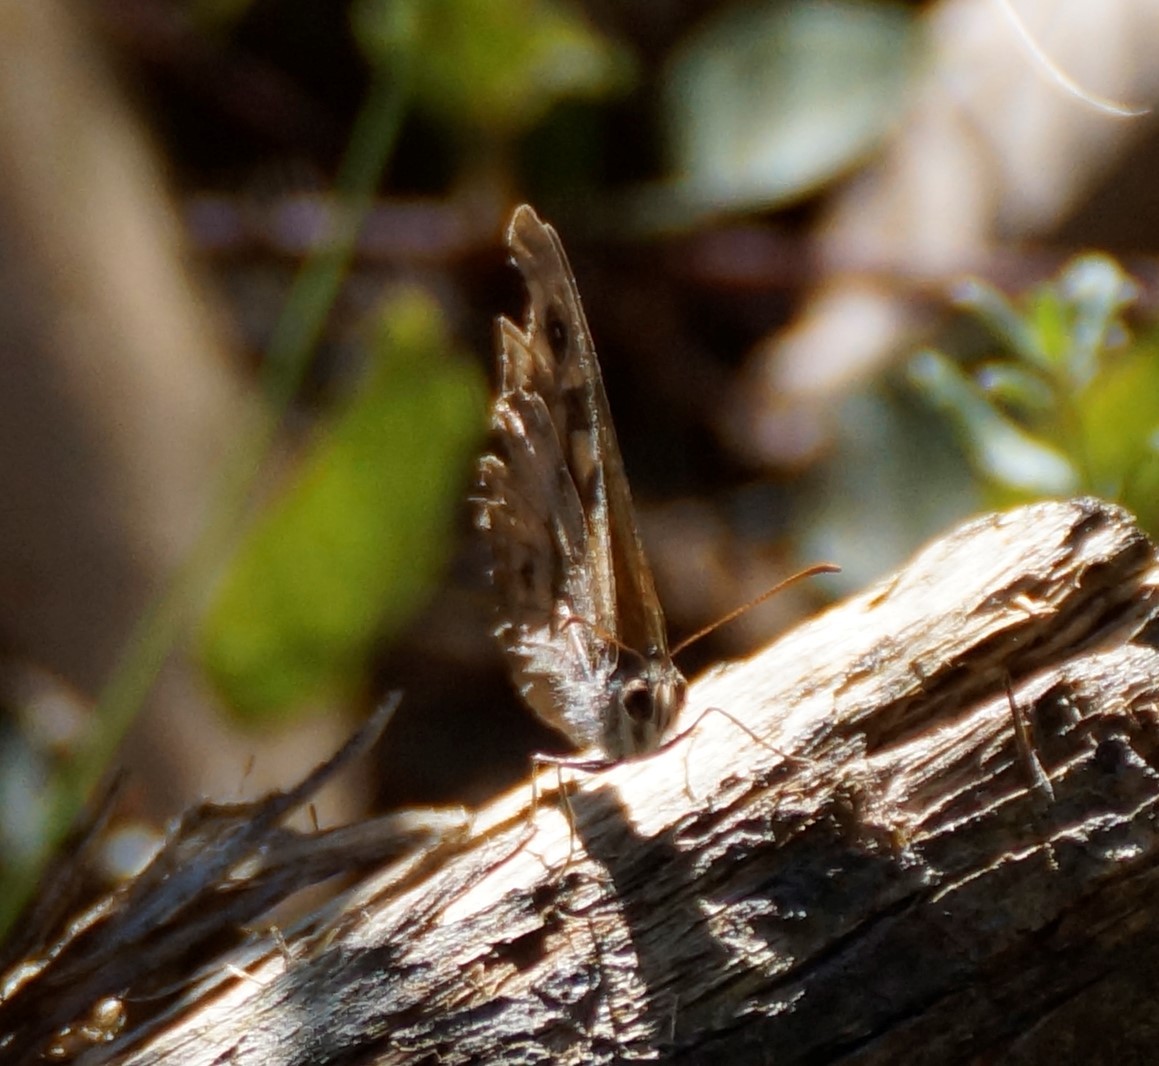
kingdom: Animalia
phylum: Arthropoda
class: Insecta
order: Lepidoptera
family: Nymphalidae
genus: Geitoneura
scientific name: Geitoneura klugii
